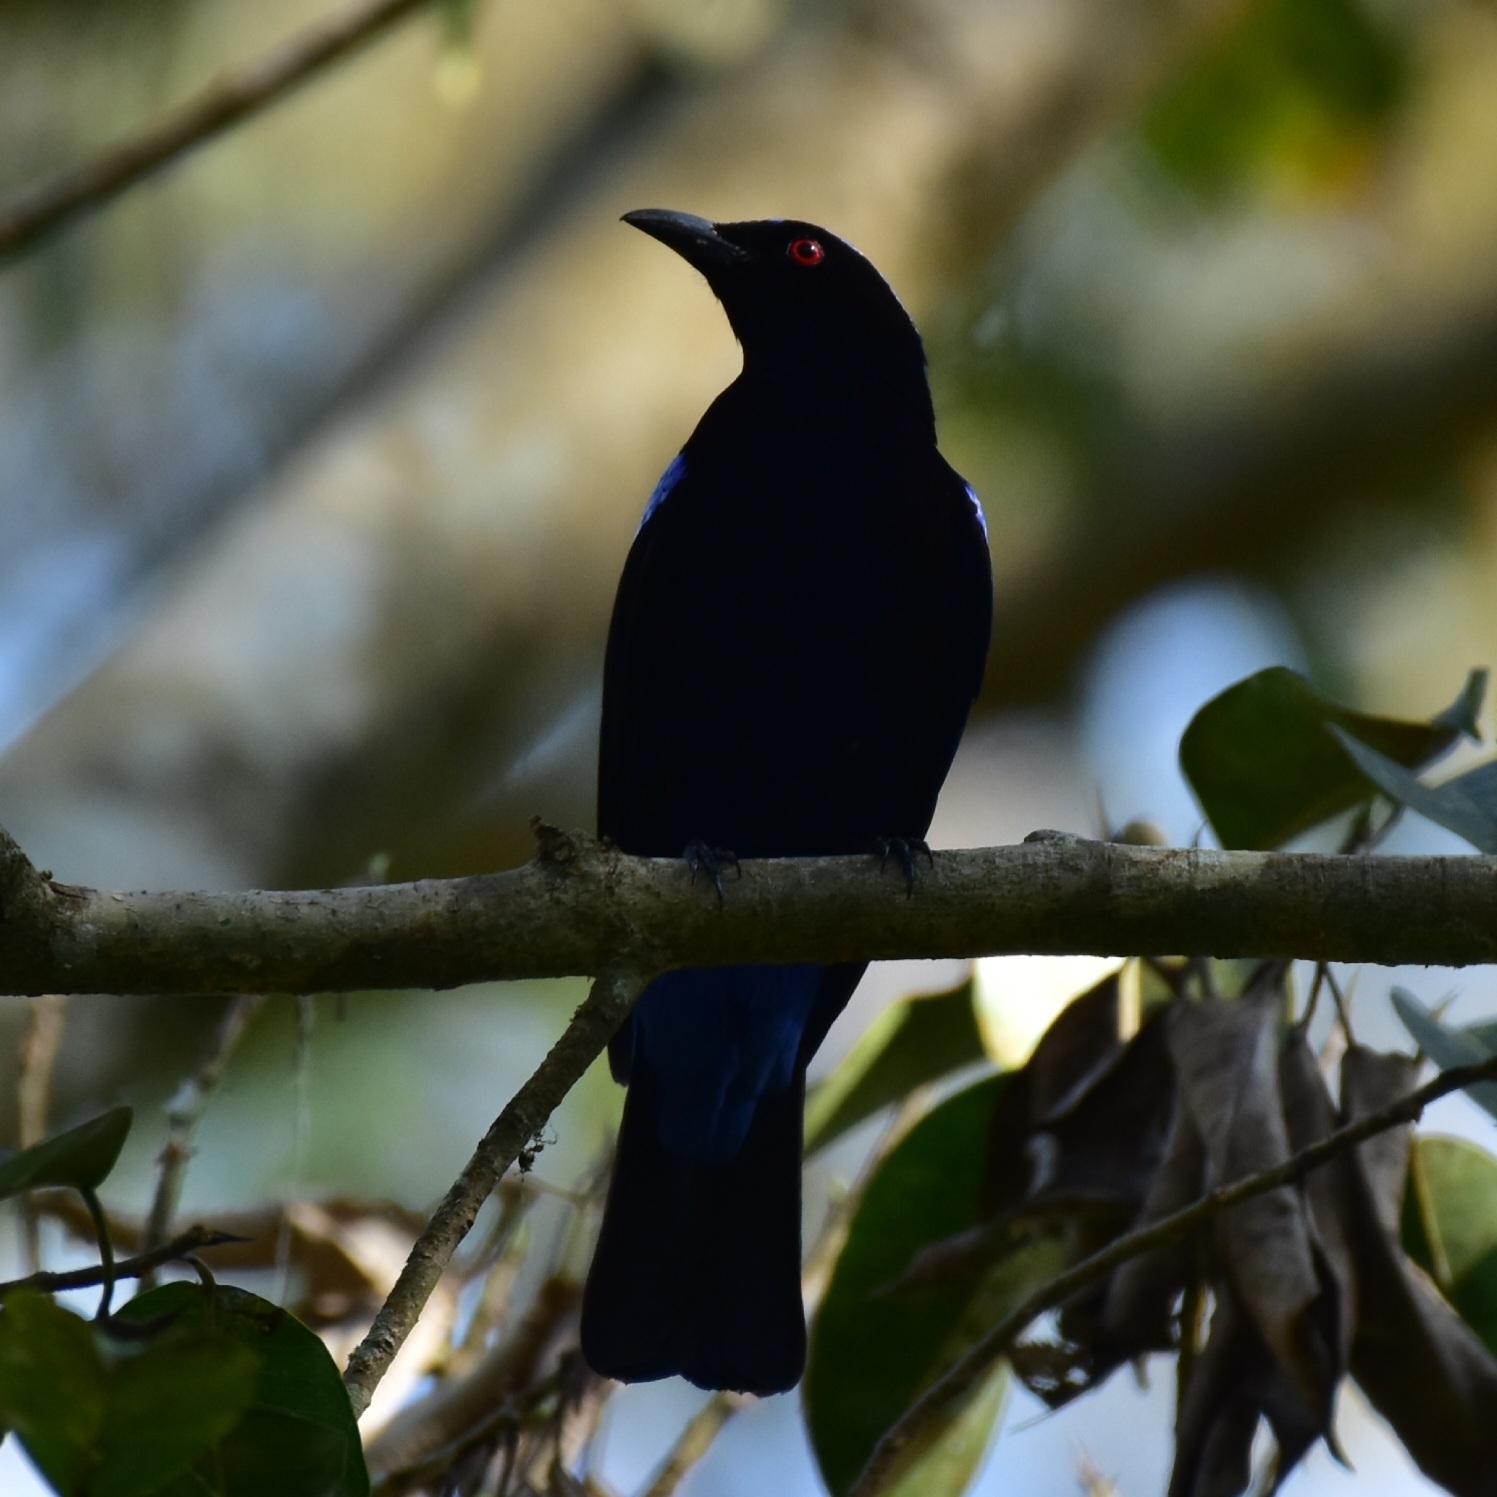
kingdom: Animalia
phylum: Chordata
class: Aves
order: Passeriformes
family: Irenidae
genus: Irena
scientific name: Irena puella
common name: Asian fairy-bluebird
